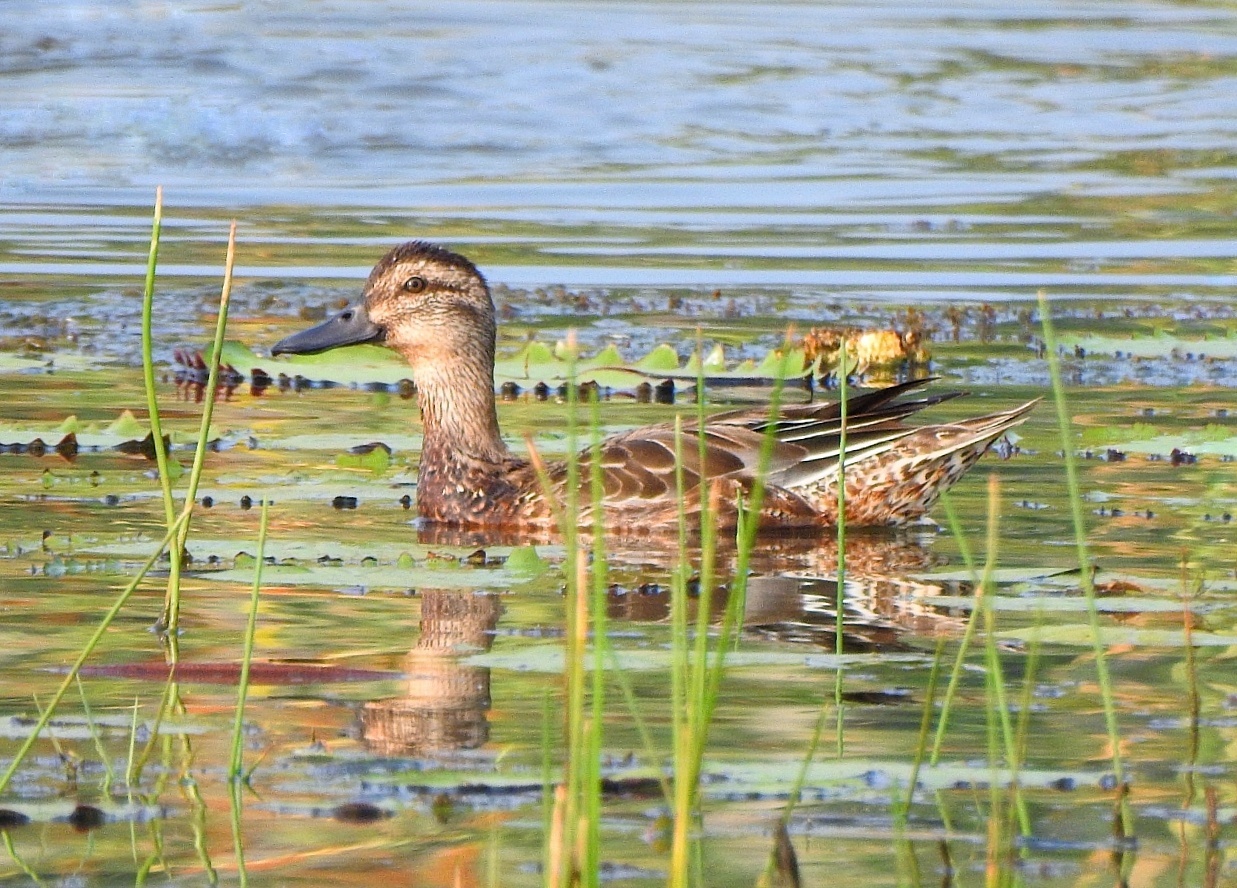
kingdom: Animalia
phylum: Chordata
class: Aves
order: Anseriformes
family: Anatidae
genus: Spatula
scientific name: Spatula querquedula
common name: Garganey
